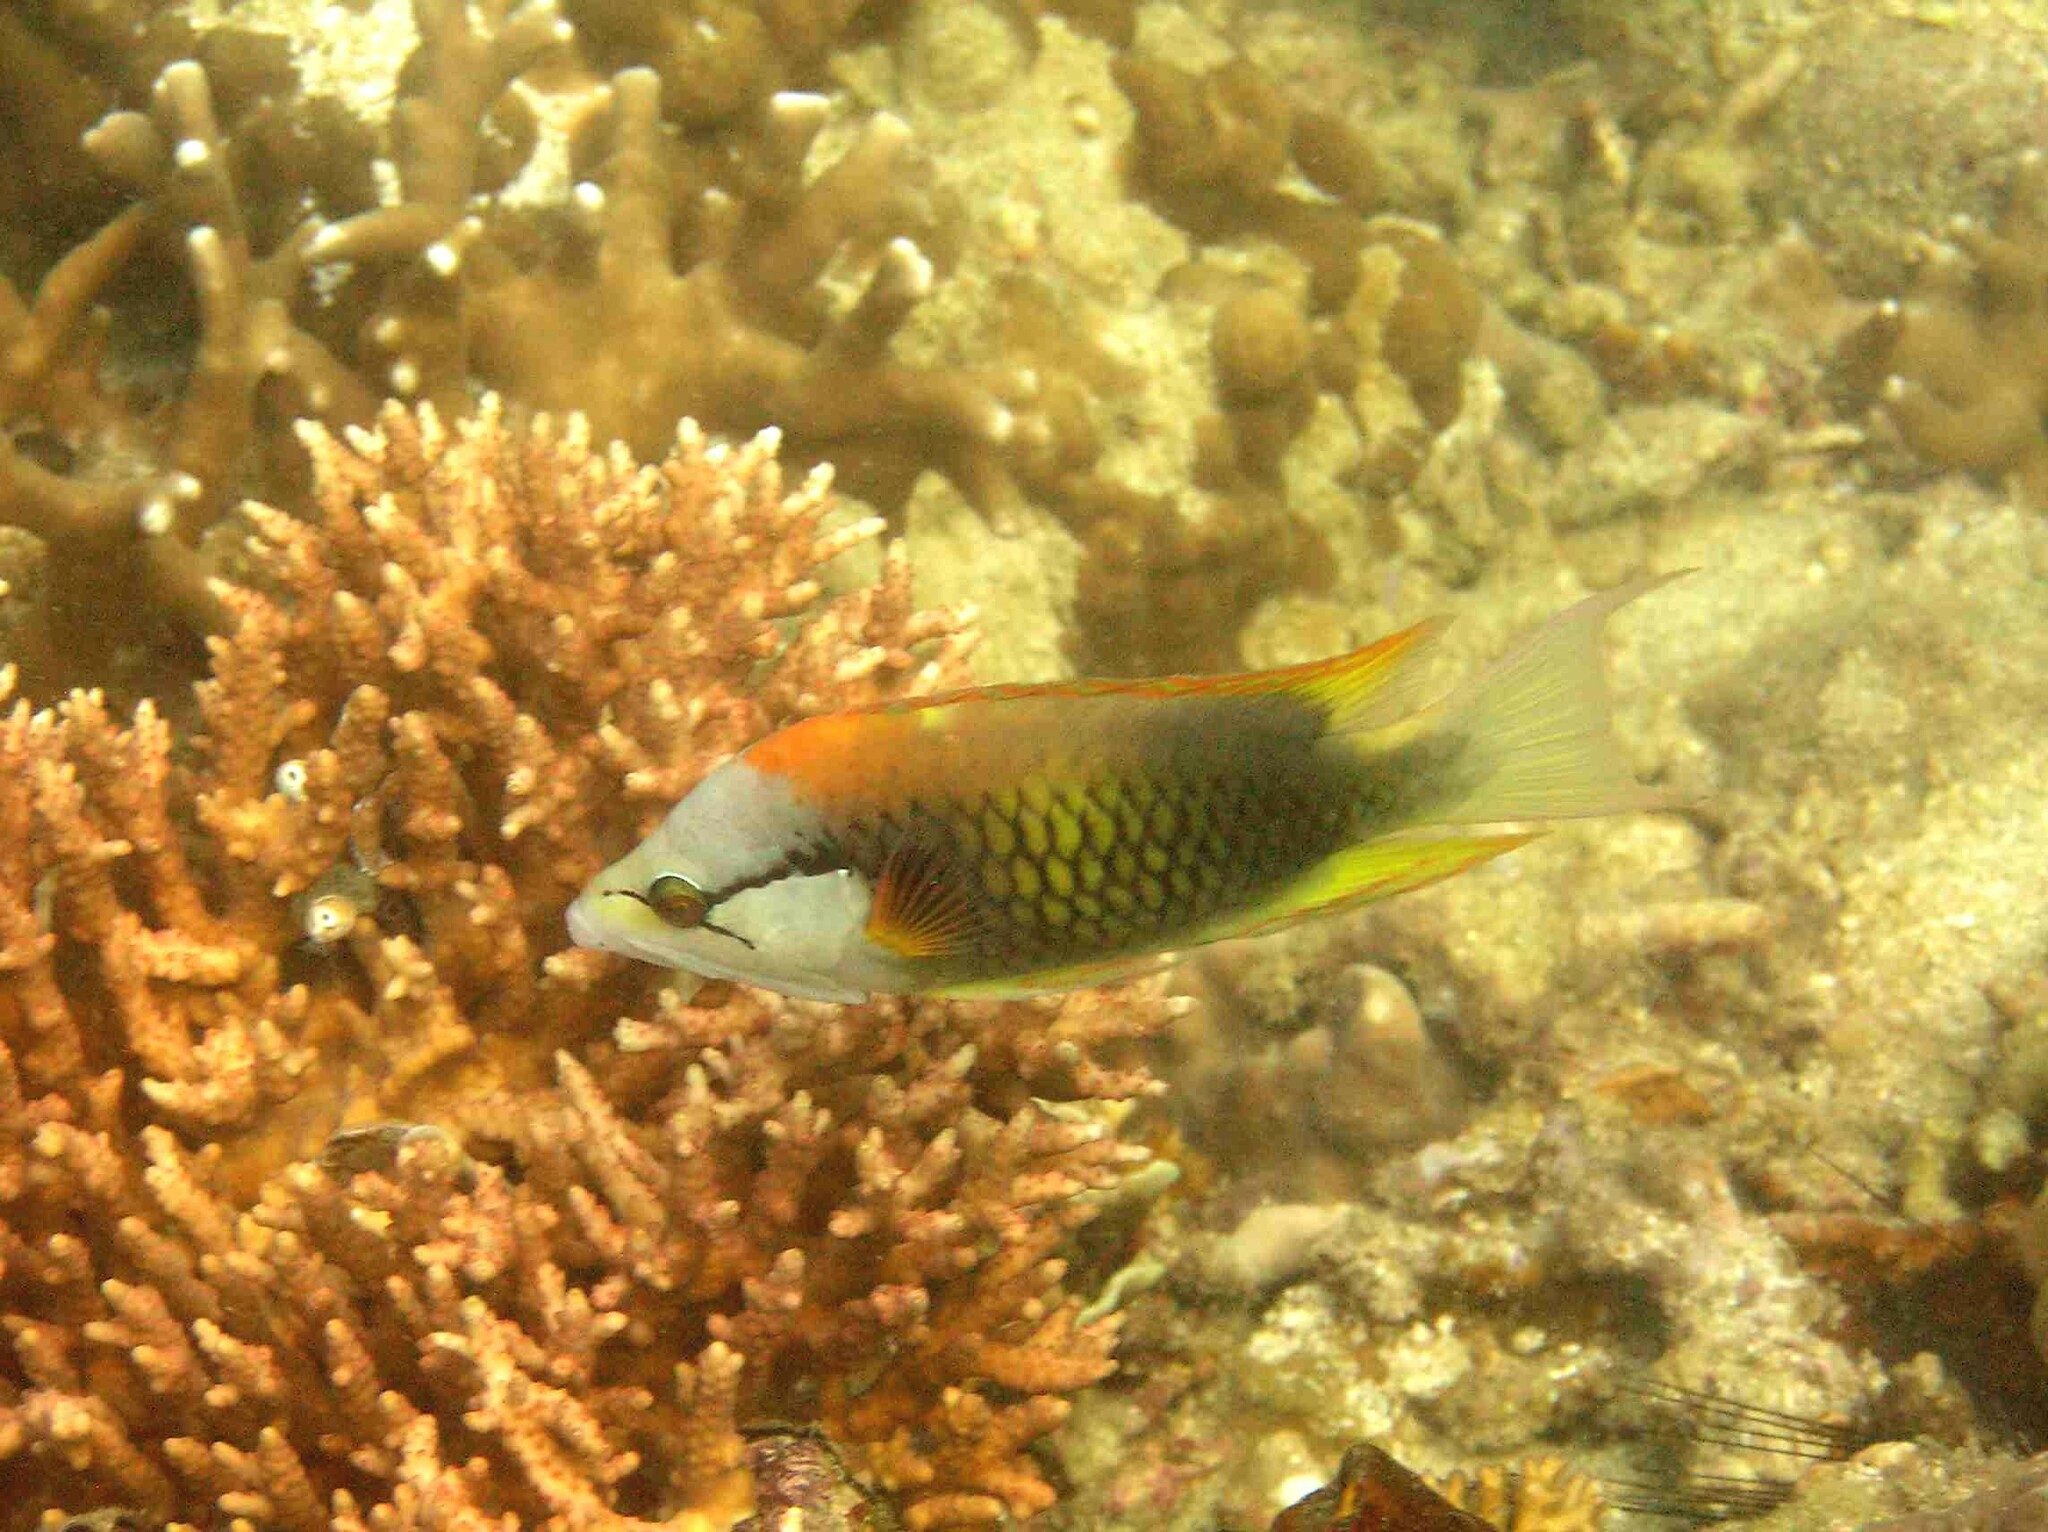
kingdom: Animalia
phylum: Chordata
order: Perciformes
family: Labridae
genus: Epibulus
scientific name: Epibulus insidiator
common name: Slingjaw wrasse
